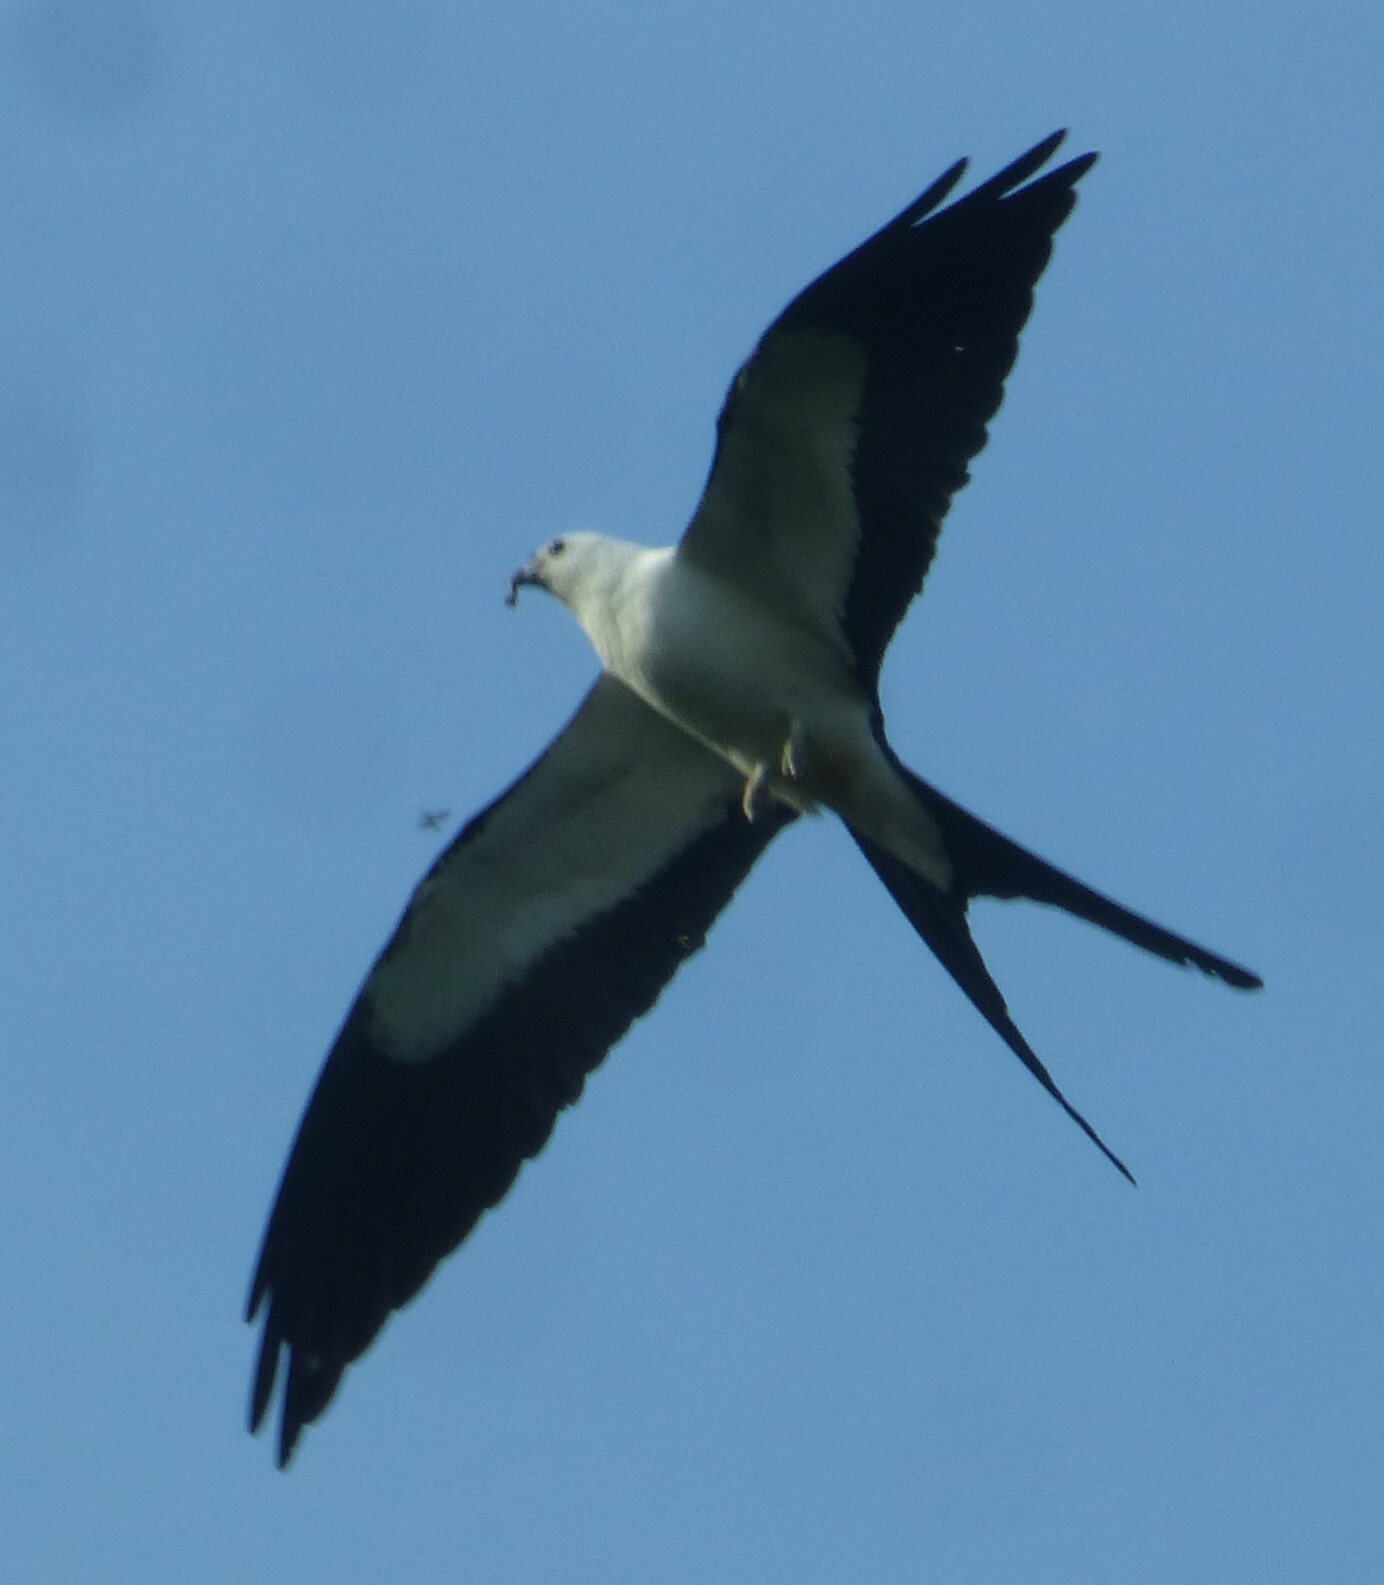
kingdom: Animalia
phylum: Chordata
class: Aves
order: Accipitriformes
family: Accipitridae
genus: Elanoides
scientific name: Elanoides forficatus
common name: Swallow-tailed kite
